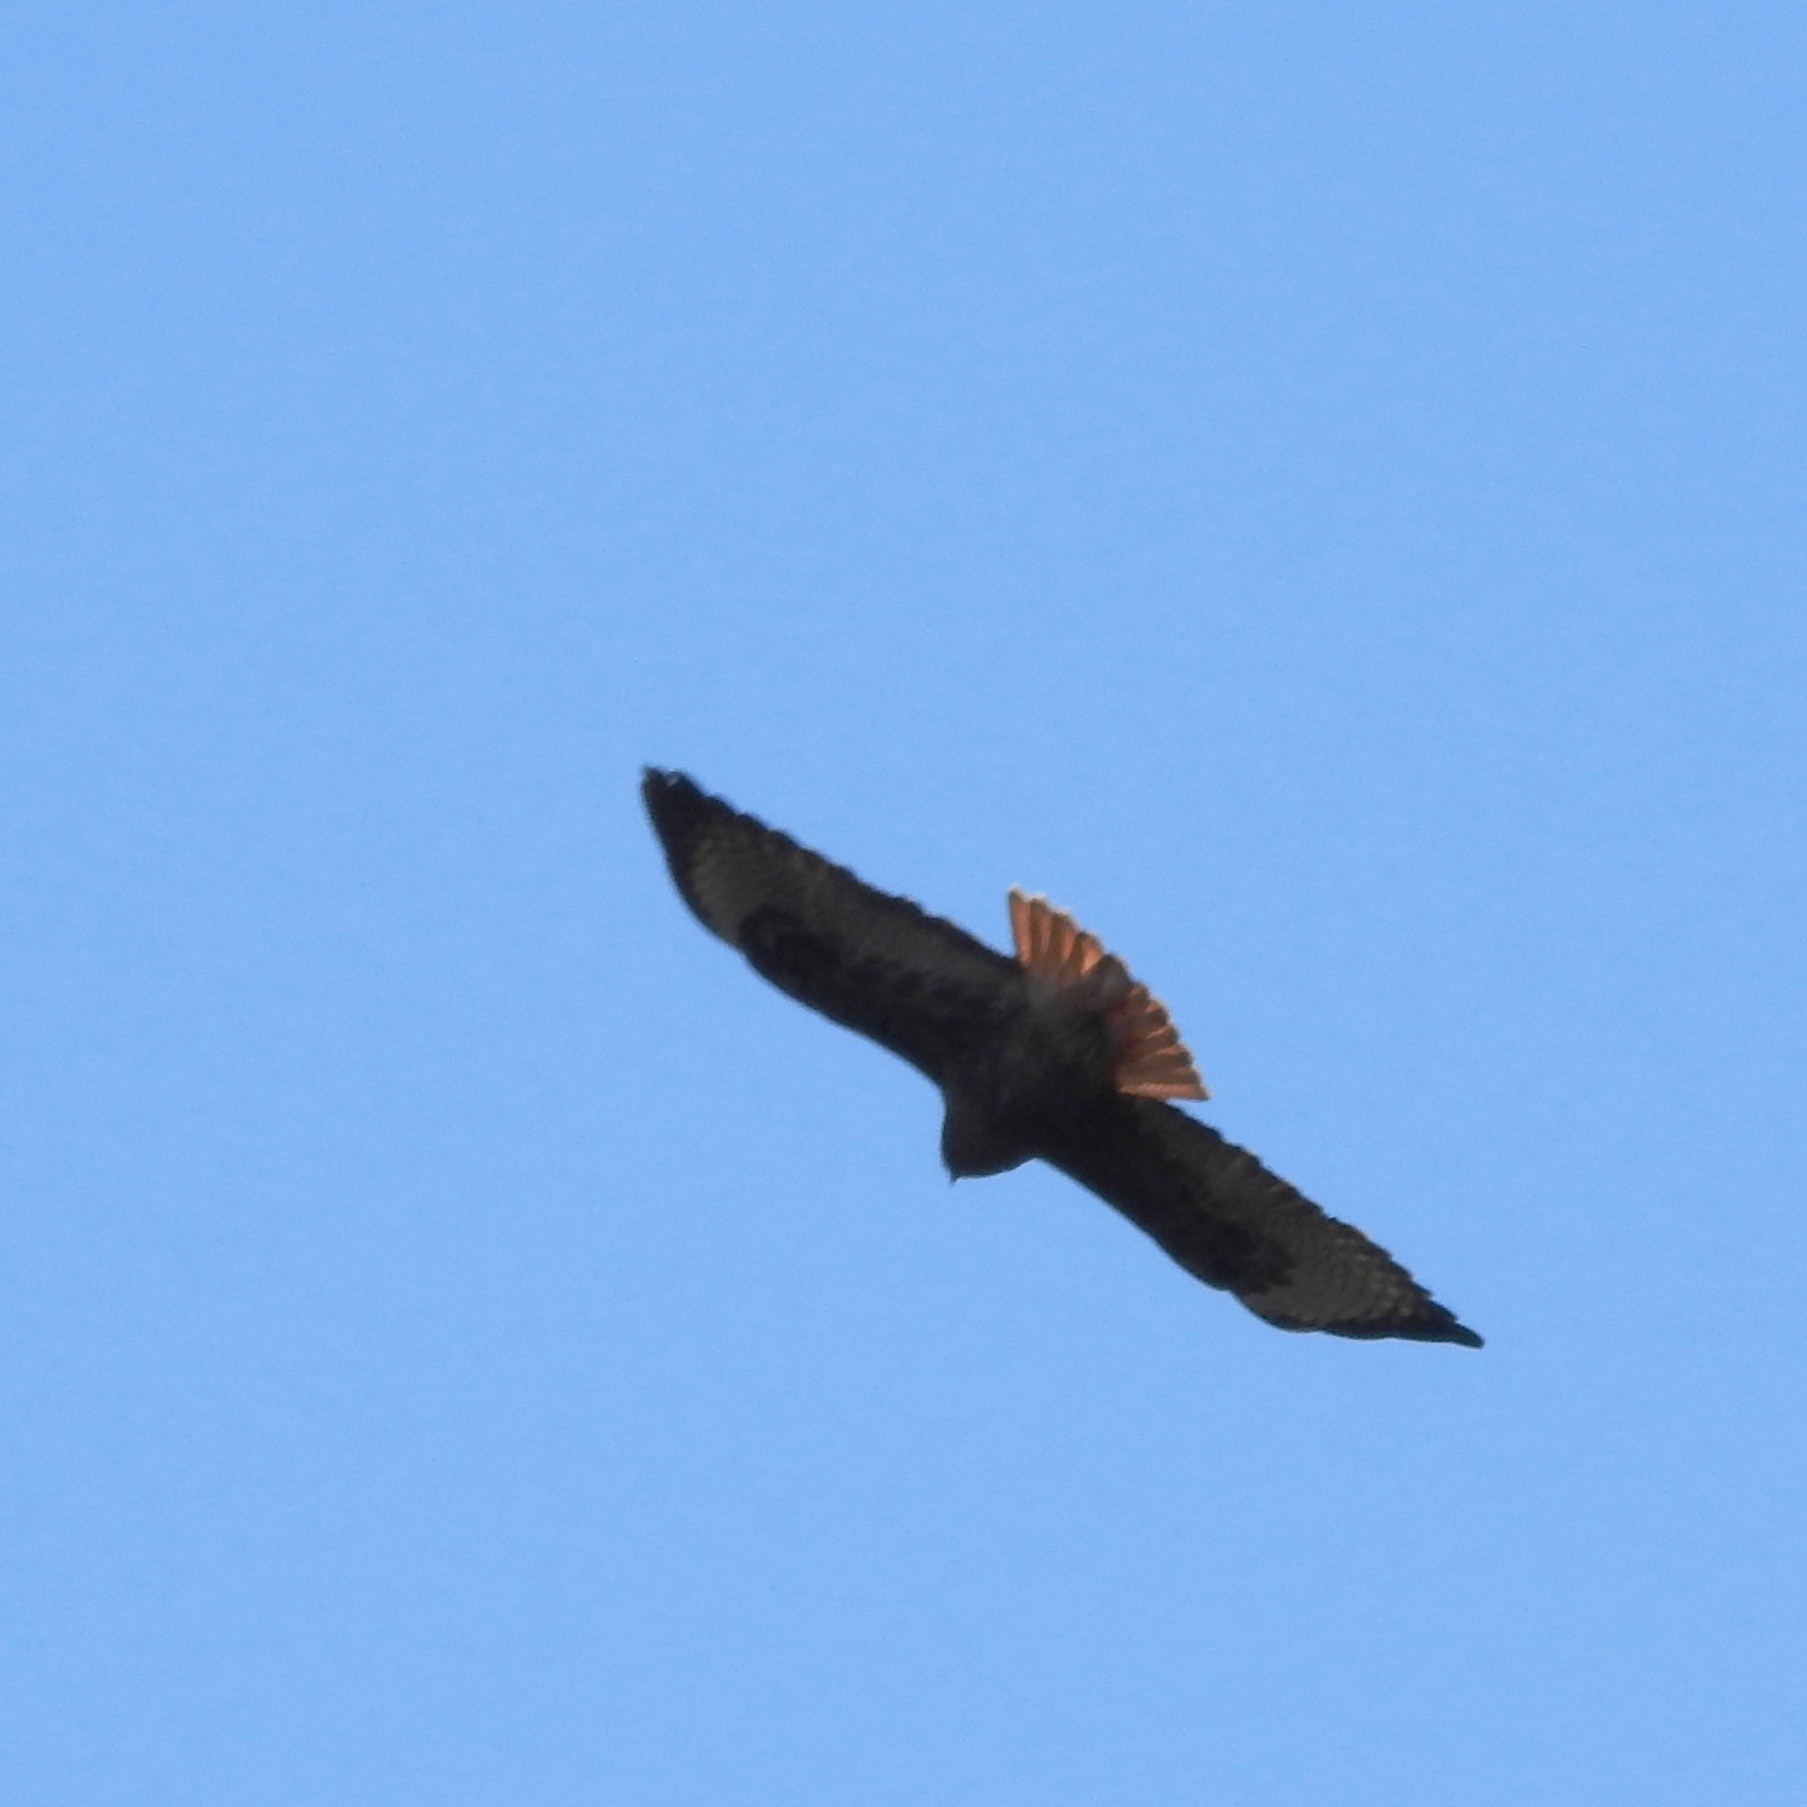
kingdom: Animalia
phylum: Chordata
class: Aves
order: Accipitriformes
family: Accipitridae
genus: Buteo
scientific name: Buteo jamaicensis
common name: Red-tailed hawk
